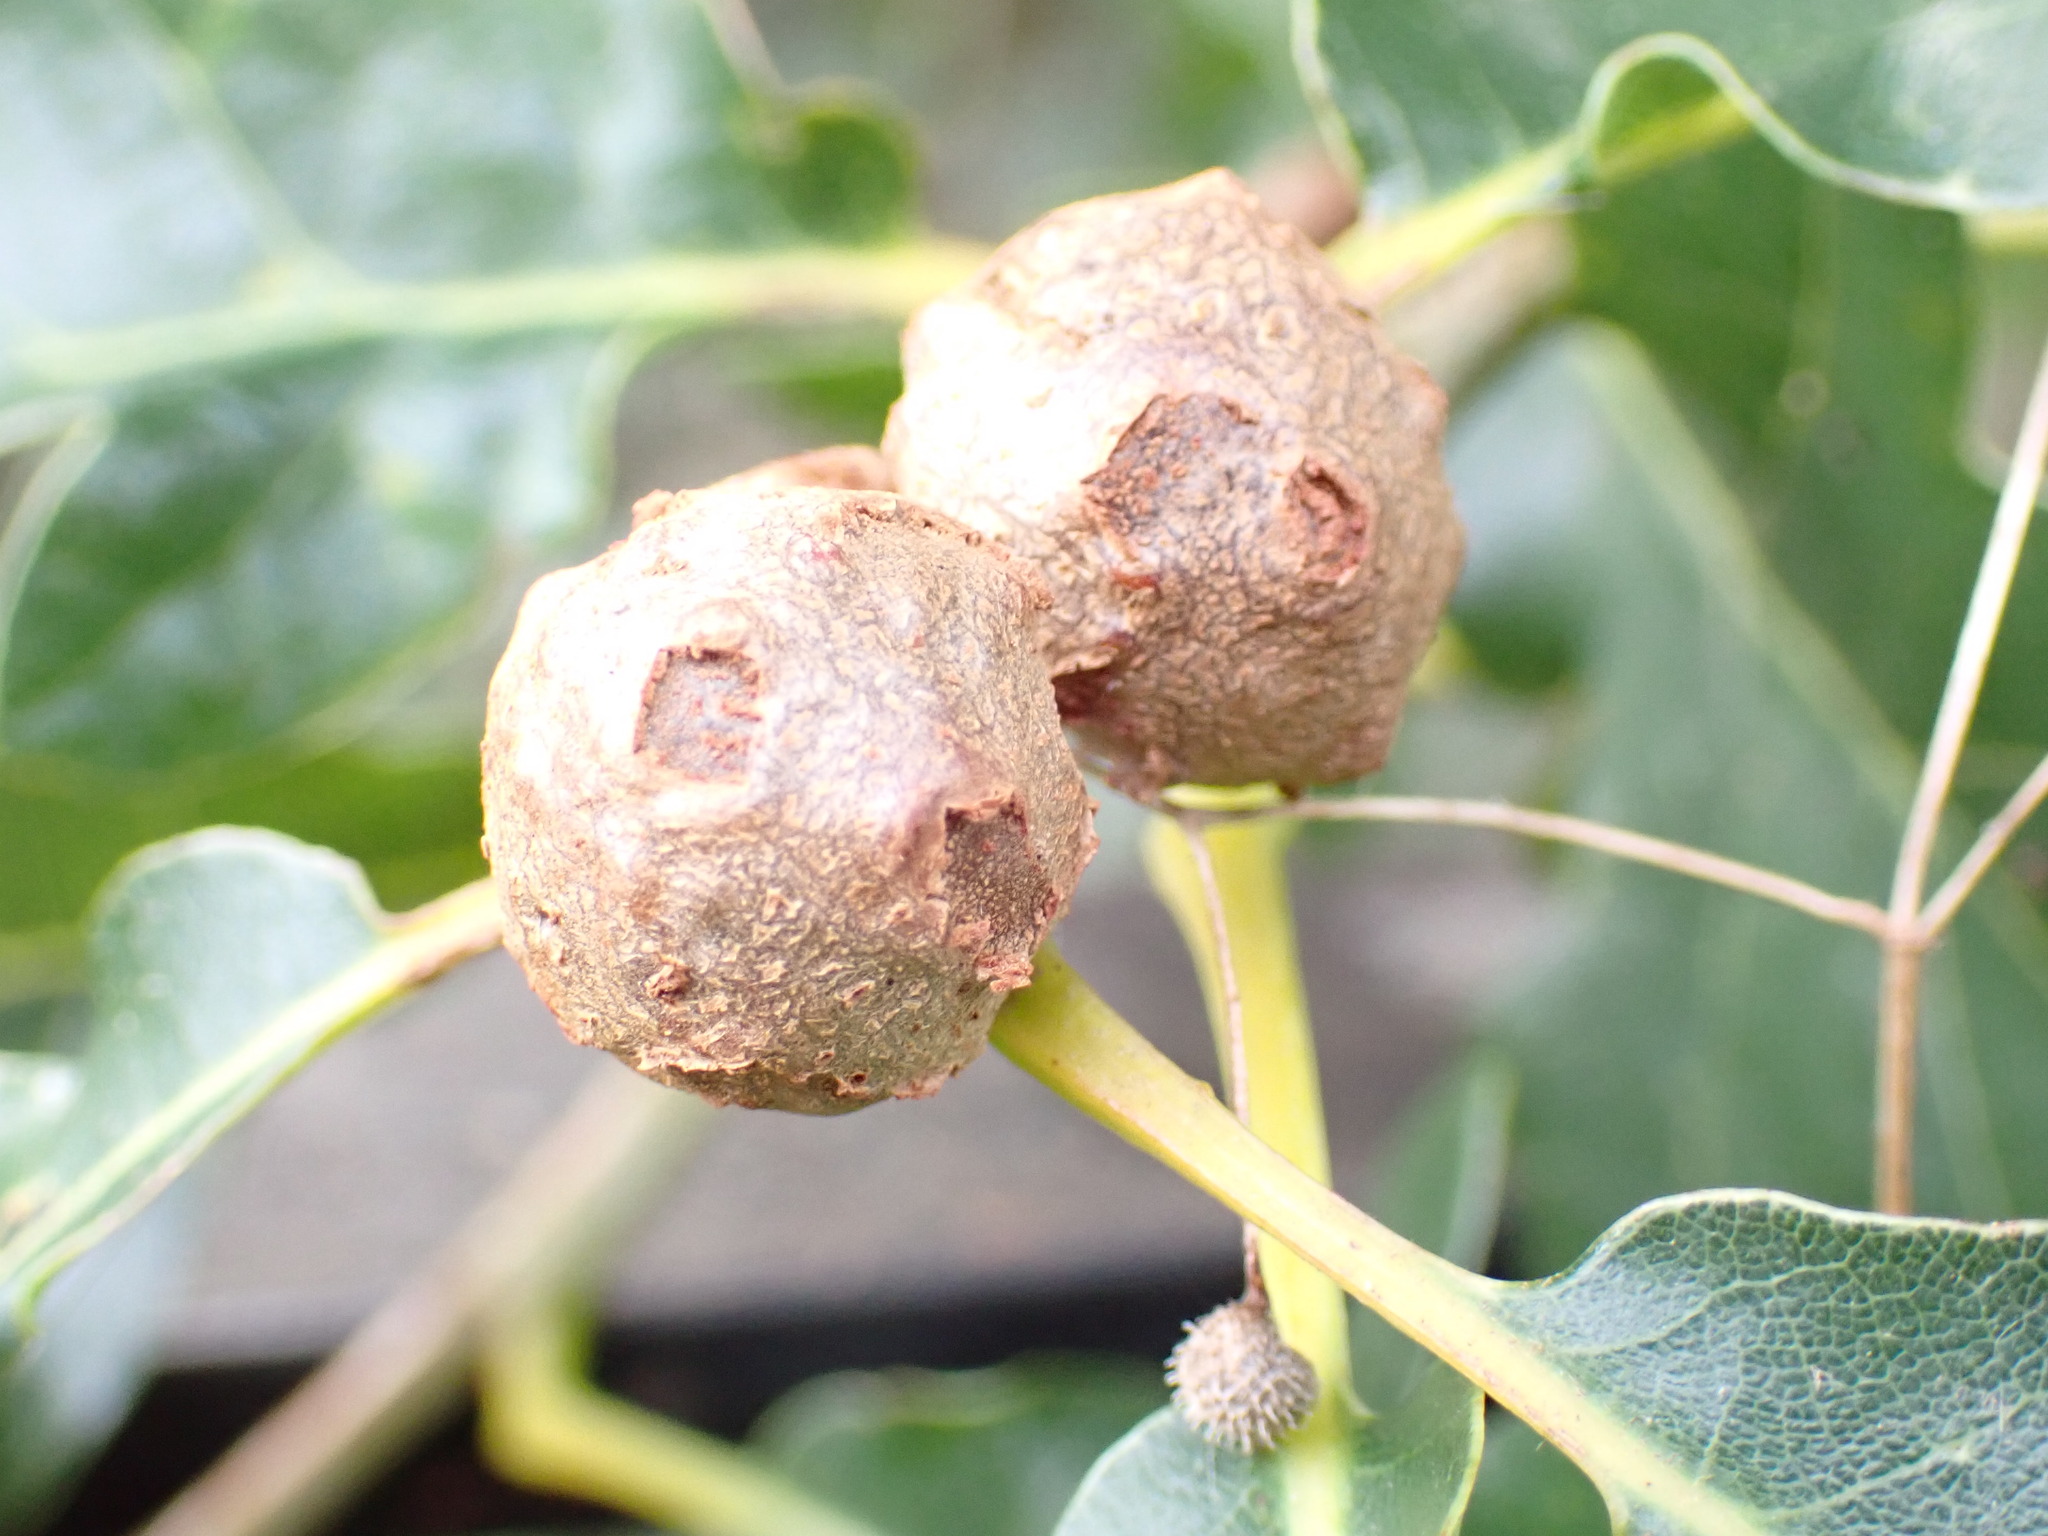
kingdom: Animalia
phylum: Arthropoda
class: Insecta
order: Hymenoptera
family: Cynipidae
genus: Andricus
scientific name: Andricus lignicolus
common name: Cola-nut gall
